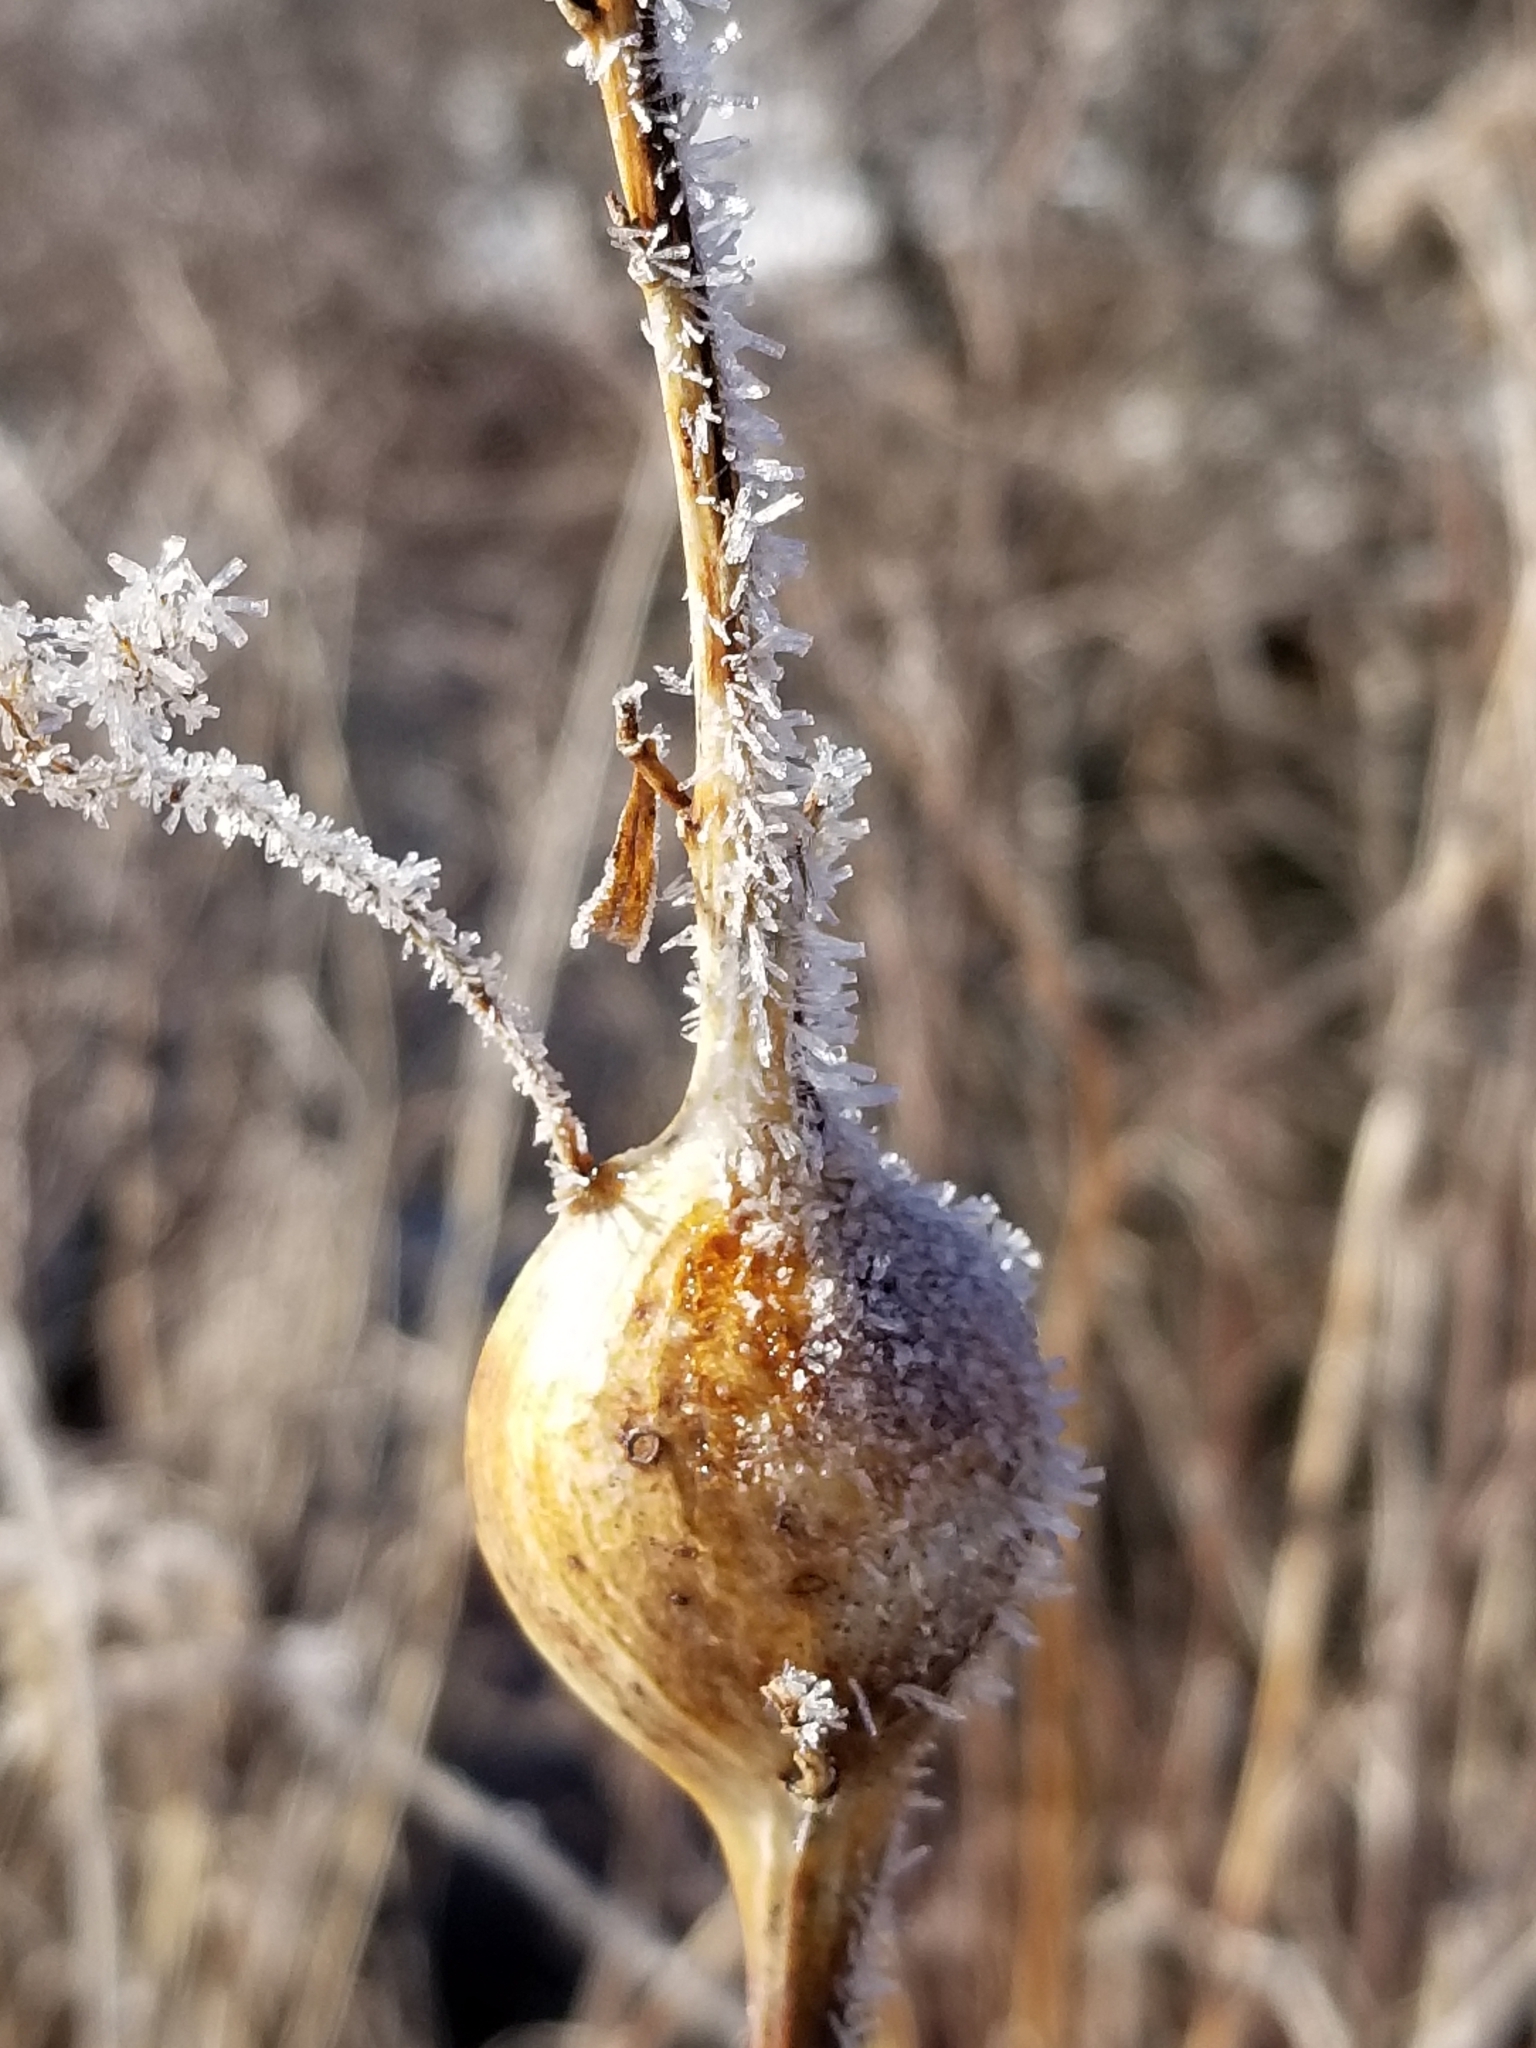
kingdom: Animalia
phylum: Arthropoda
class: Insecta
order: Diptera
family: Tephritidae
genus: Eurosta
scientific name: Eurosta solidaginis
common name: Goldenrod gall fly
